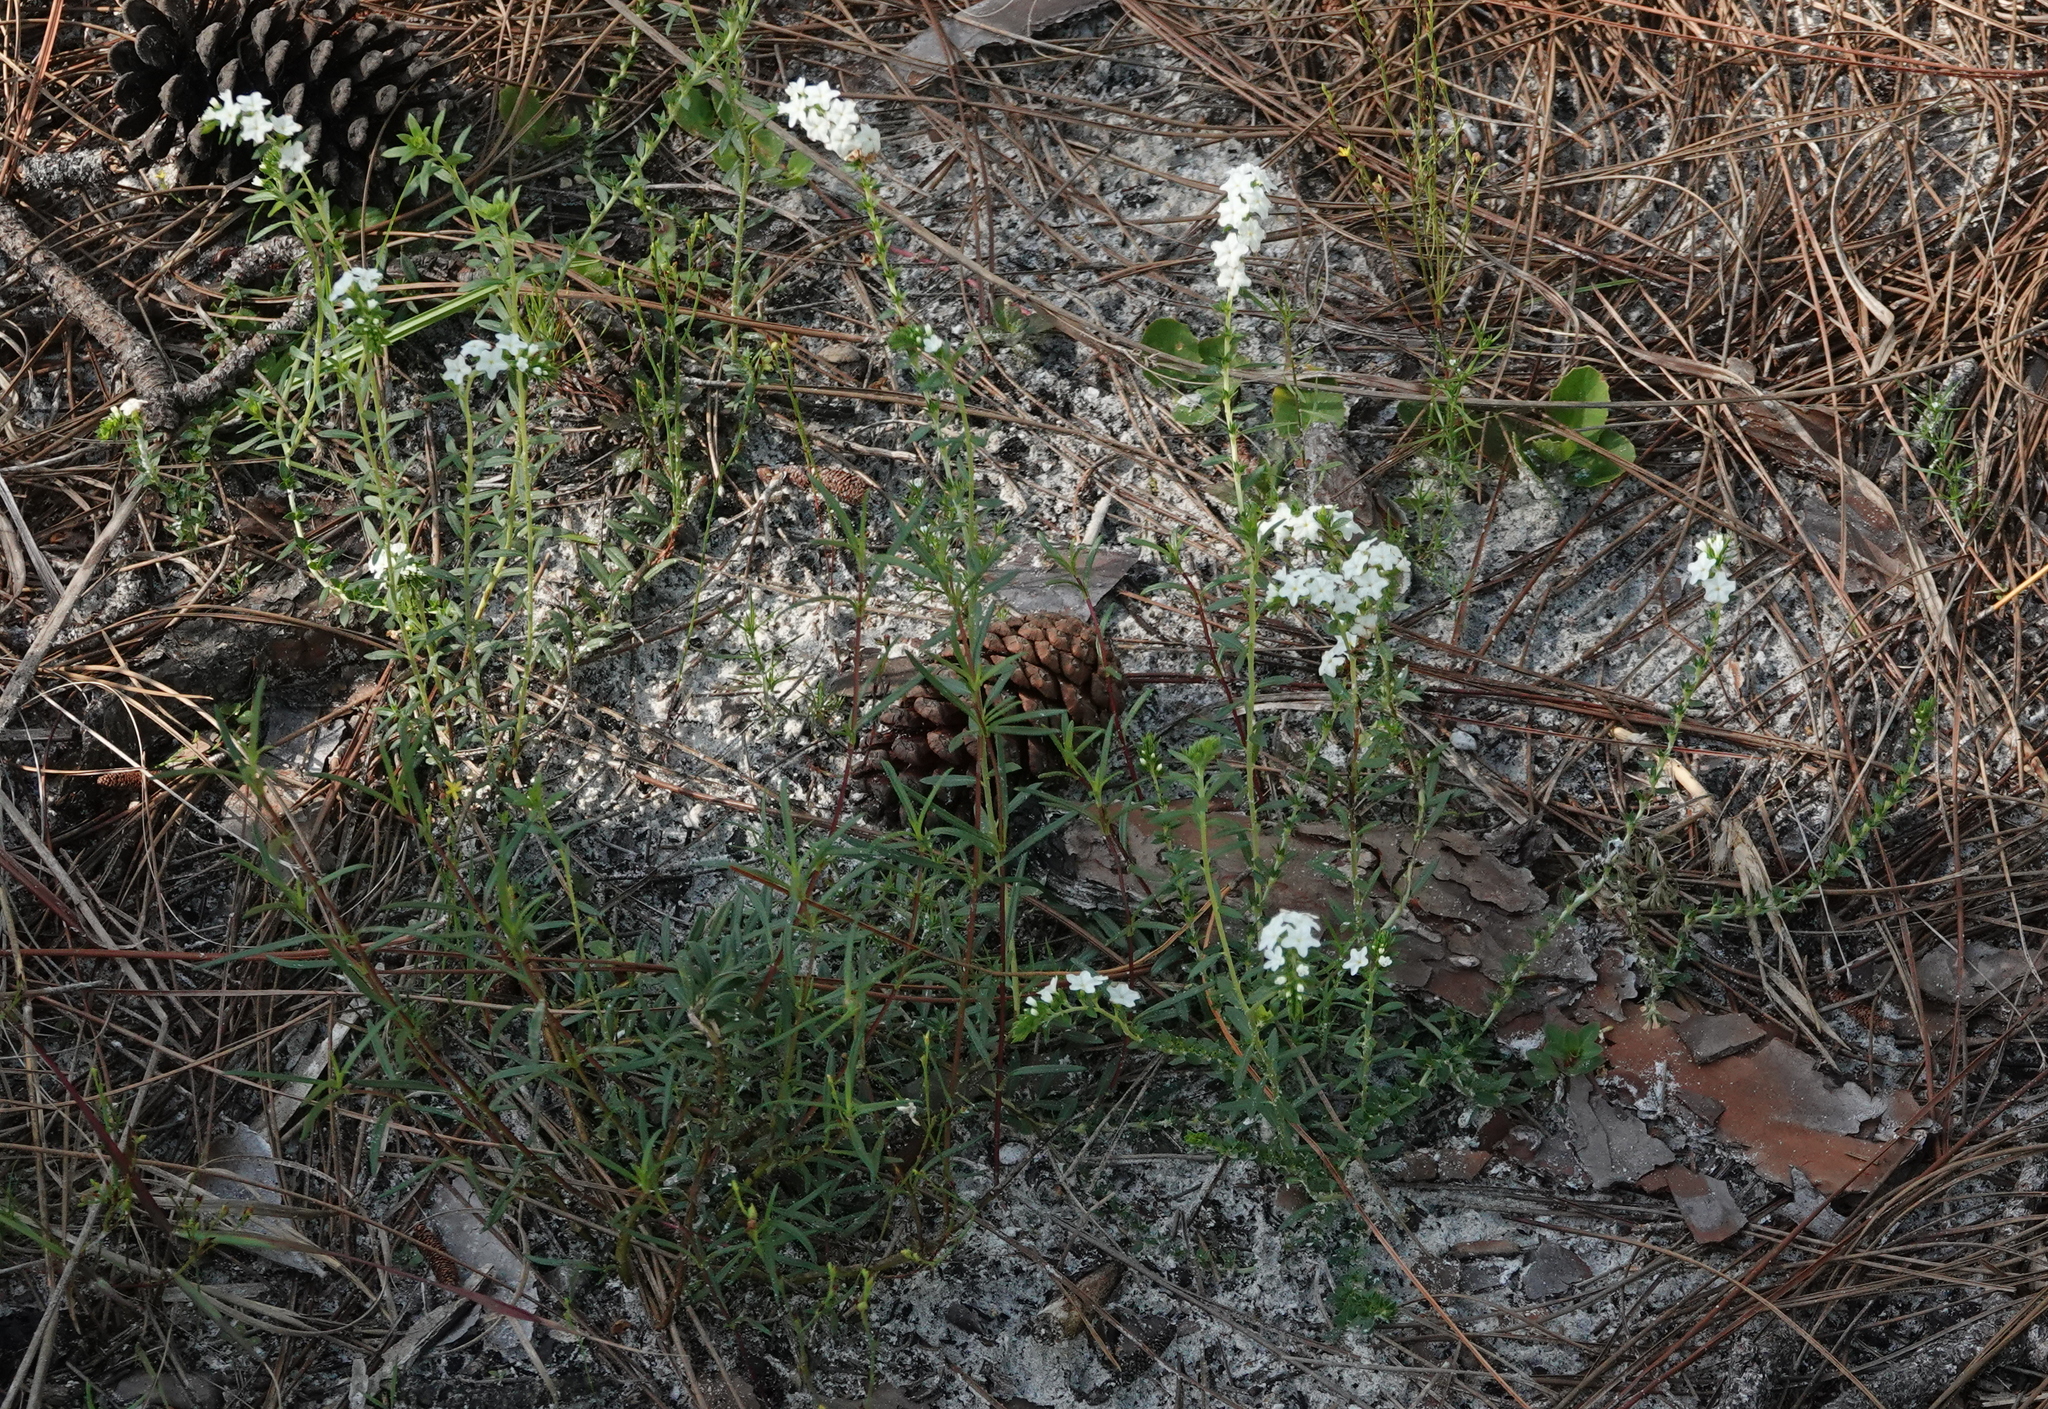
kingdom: Plantae
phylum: Tracheophyta
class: Magnoliopsida
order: Boraginales
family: Heliotropiaceae
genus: Euploca
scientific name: Euploca polyphylla
